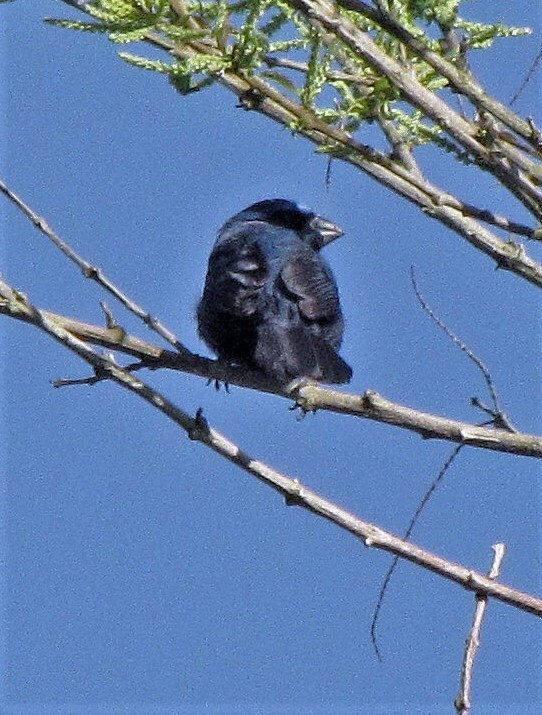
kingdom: Animalia
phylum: Chordata
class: Aves
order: Passeriformes
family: Cardinalidae
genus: Cyanoloxia
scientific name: Cyanoloxia brissonii
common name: Ultramarine grosbeak
